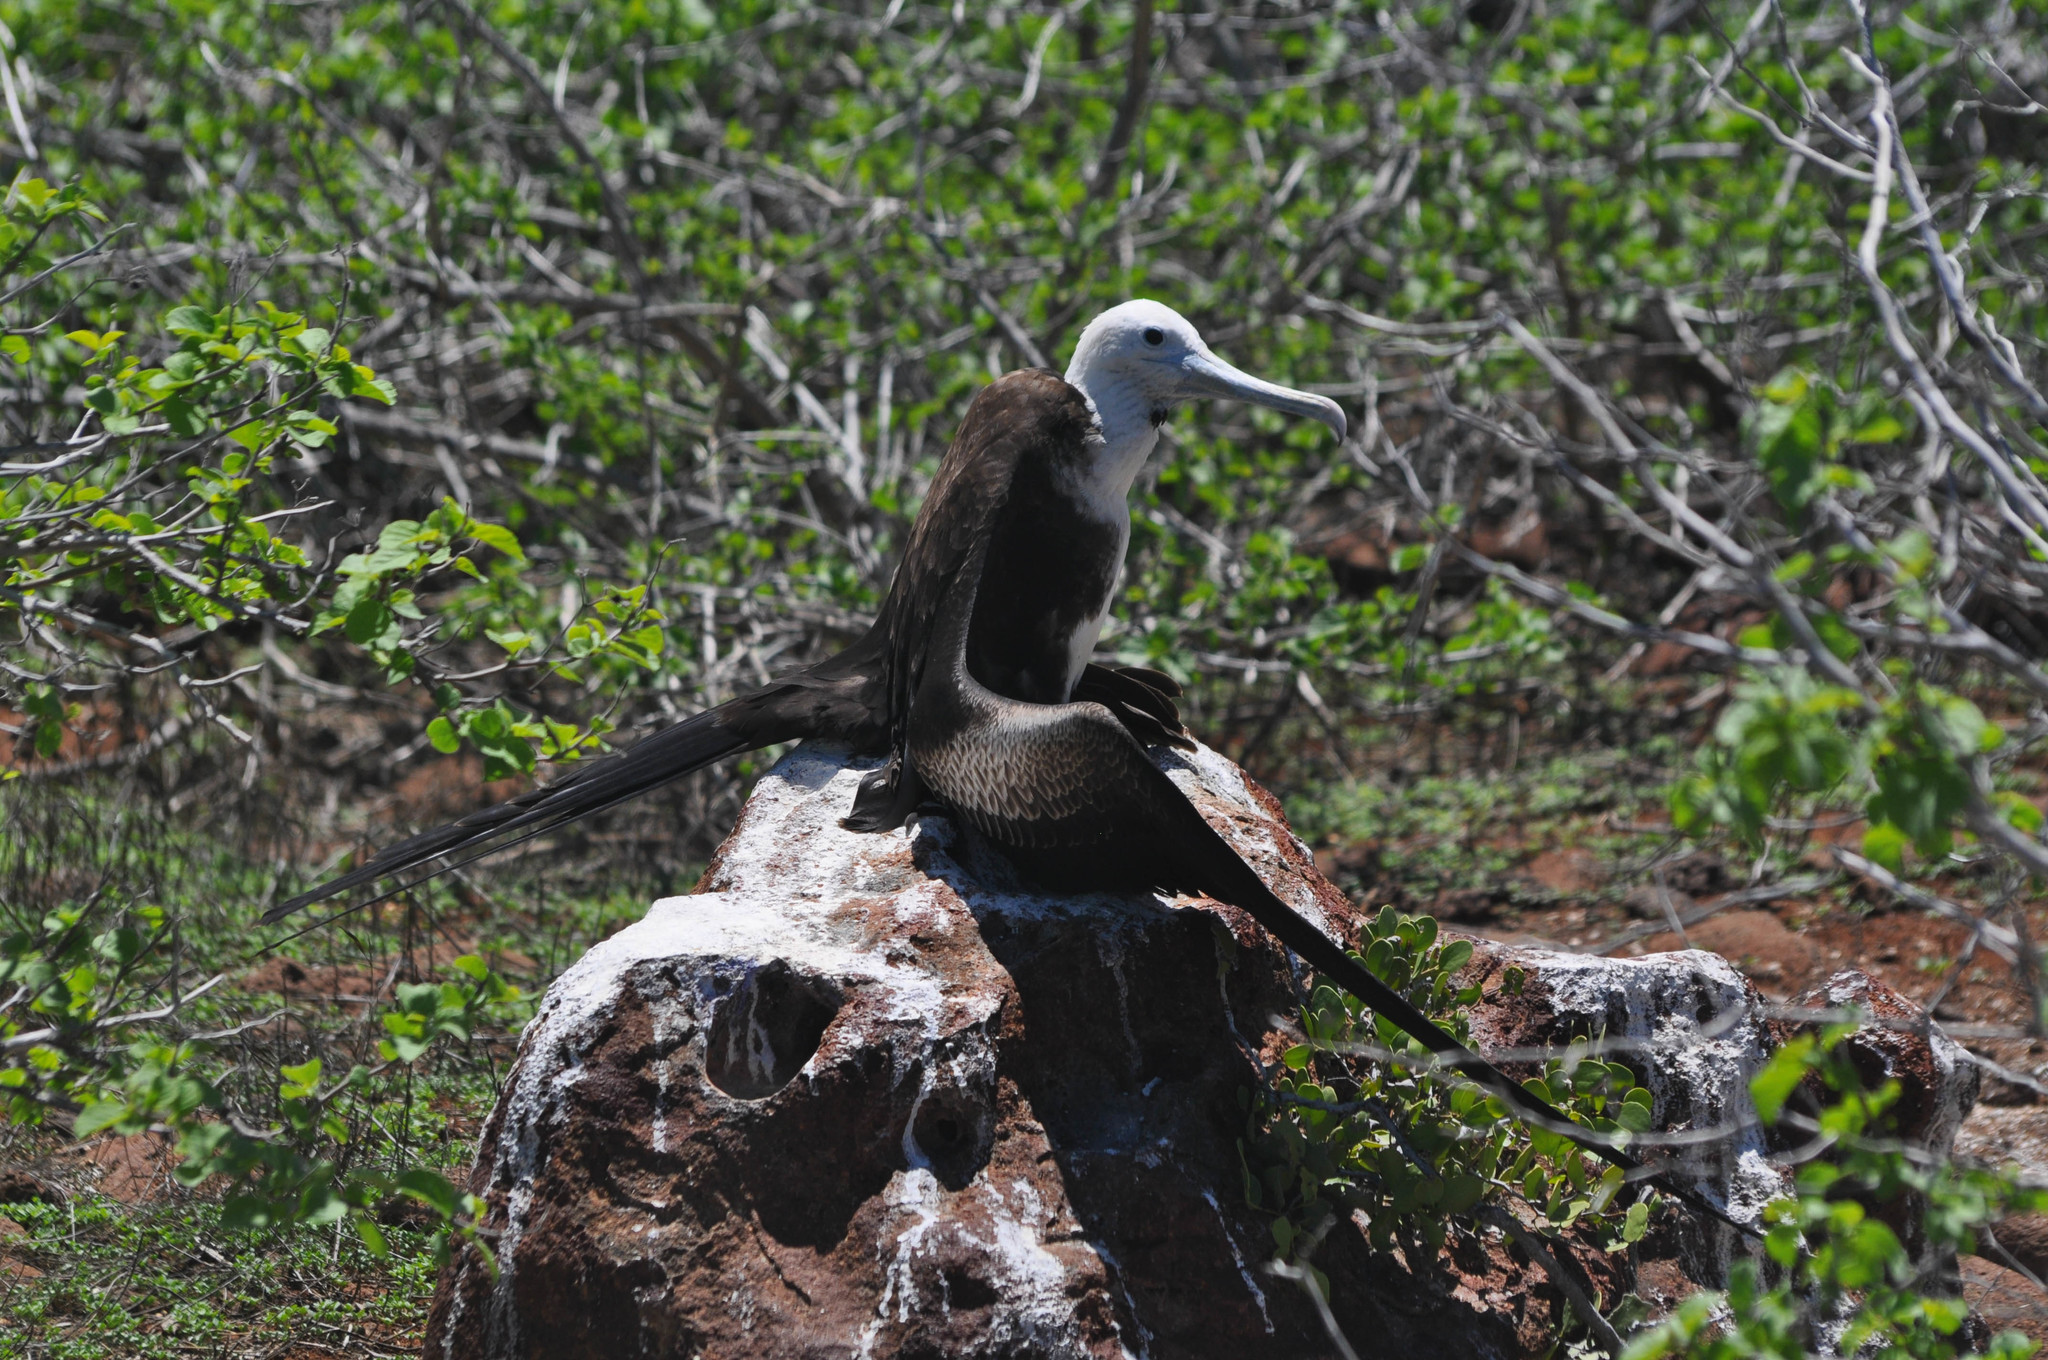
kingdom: Animalia
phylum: Chordata
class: Aves
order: Suliformes
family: Fregatidae
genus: Fregata
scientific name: Fregata magnificens
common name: Magnificent frigatebird
